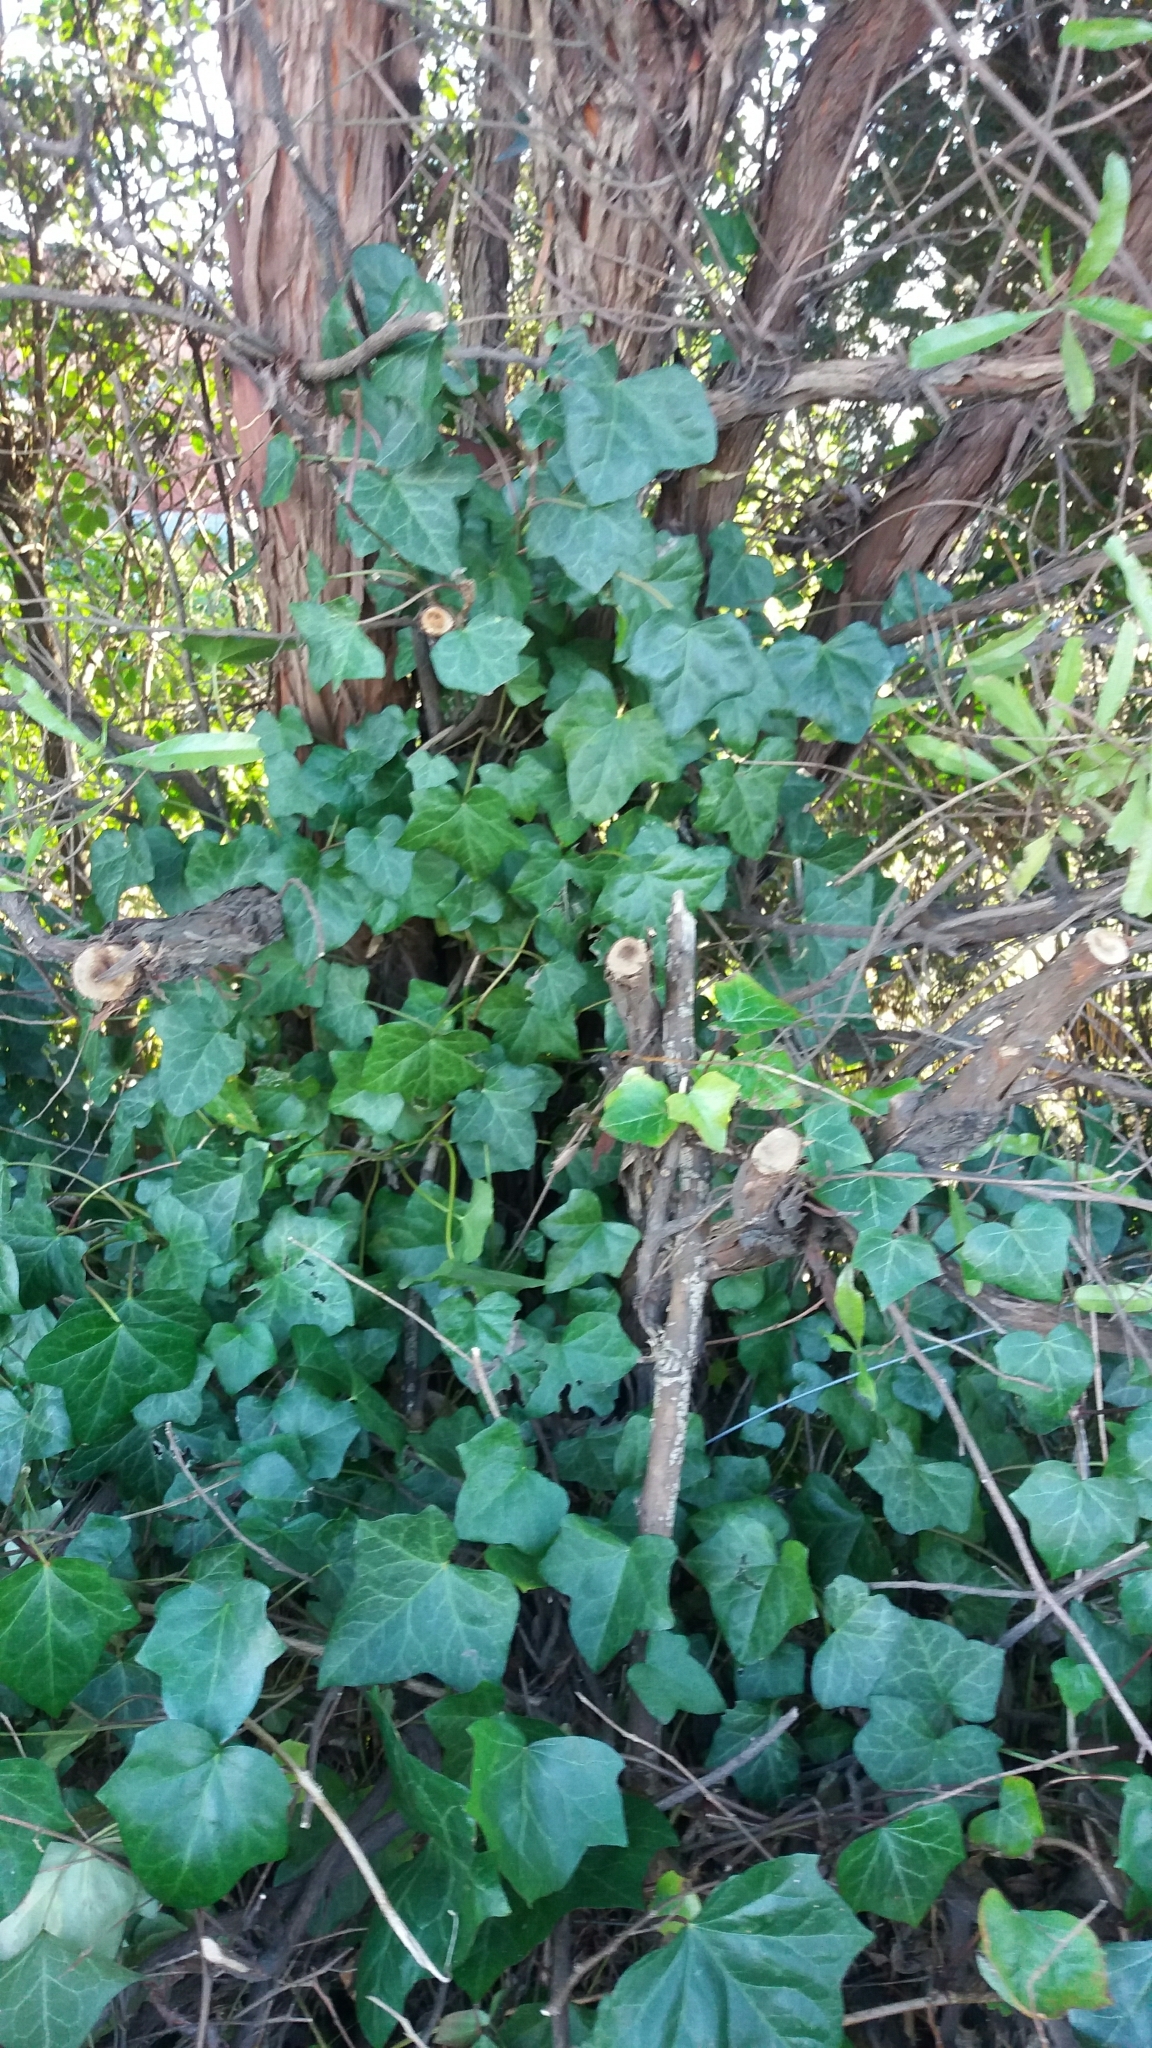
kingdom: Plantae
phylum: Tracheophyta
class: Magnoliopsida
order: Apiales
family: Araliaceae
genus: Hedera
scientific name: Hedera helix
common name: Ivy
